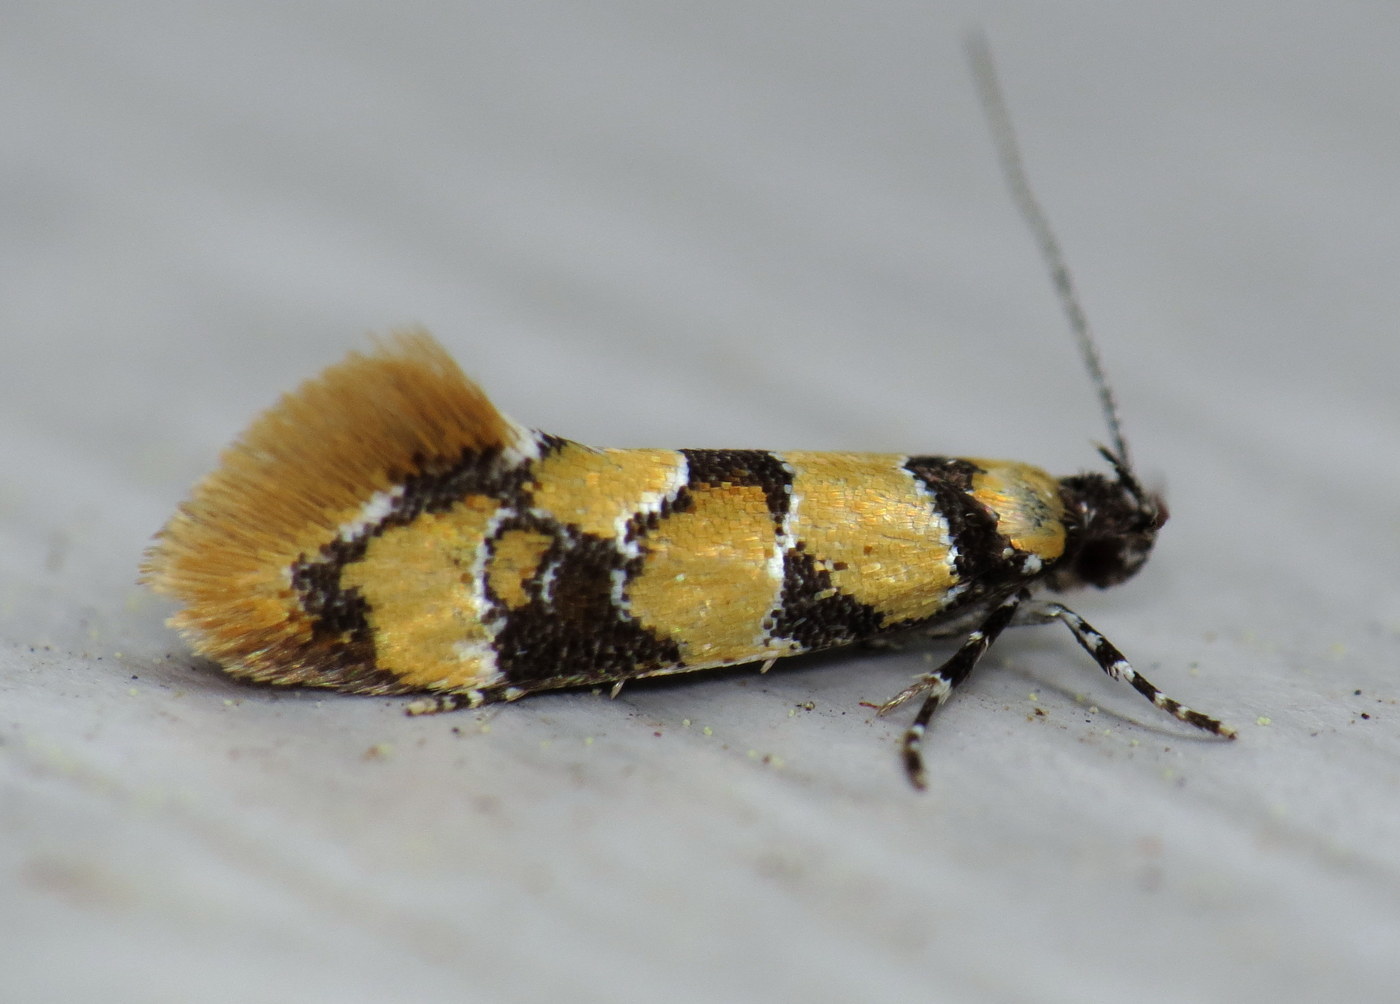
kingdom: Animalia
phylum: Arthropoda
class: Insecta
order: Lepidoptera
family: Oecophoridae
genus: Decantha
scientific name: Decantha borkhausenii
